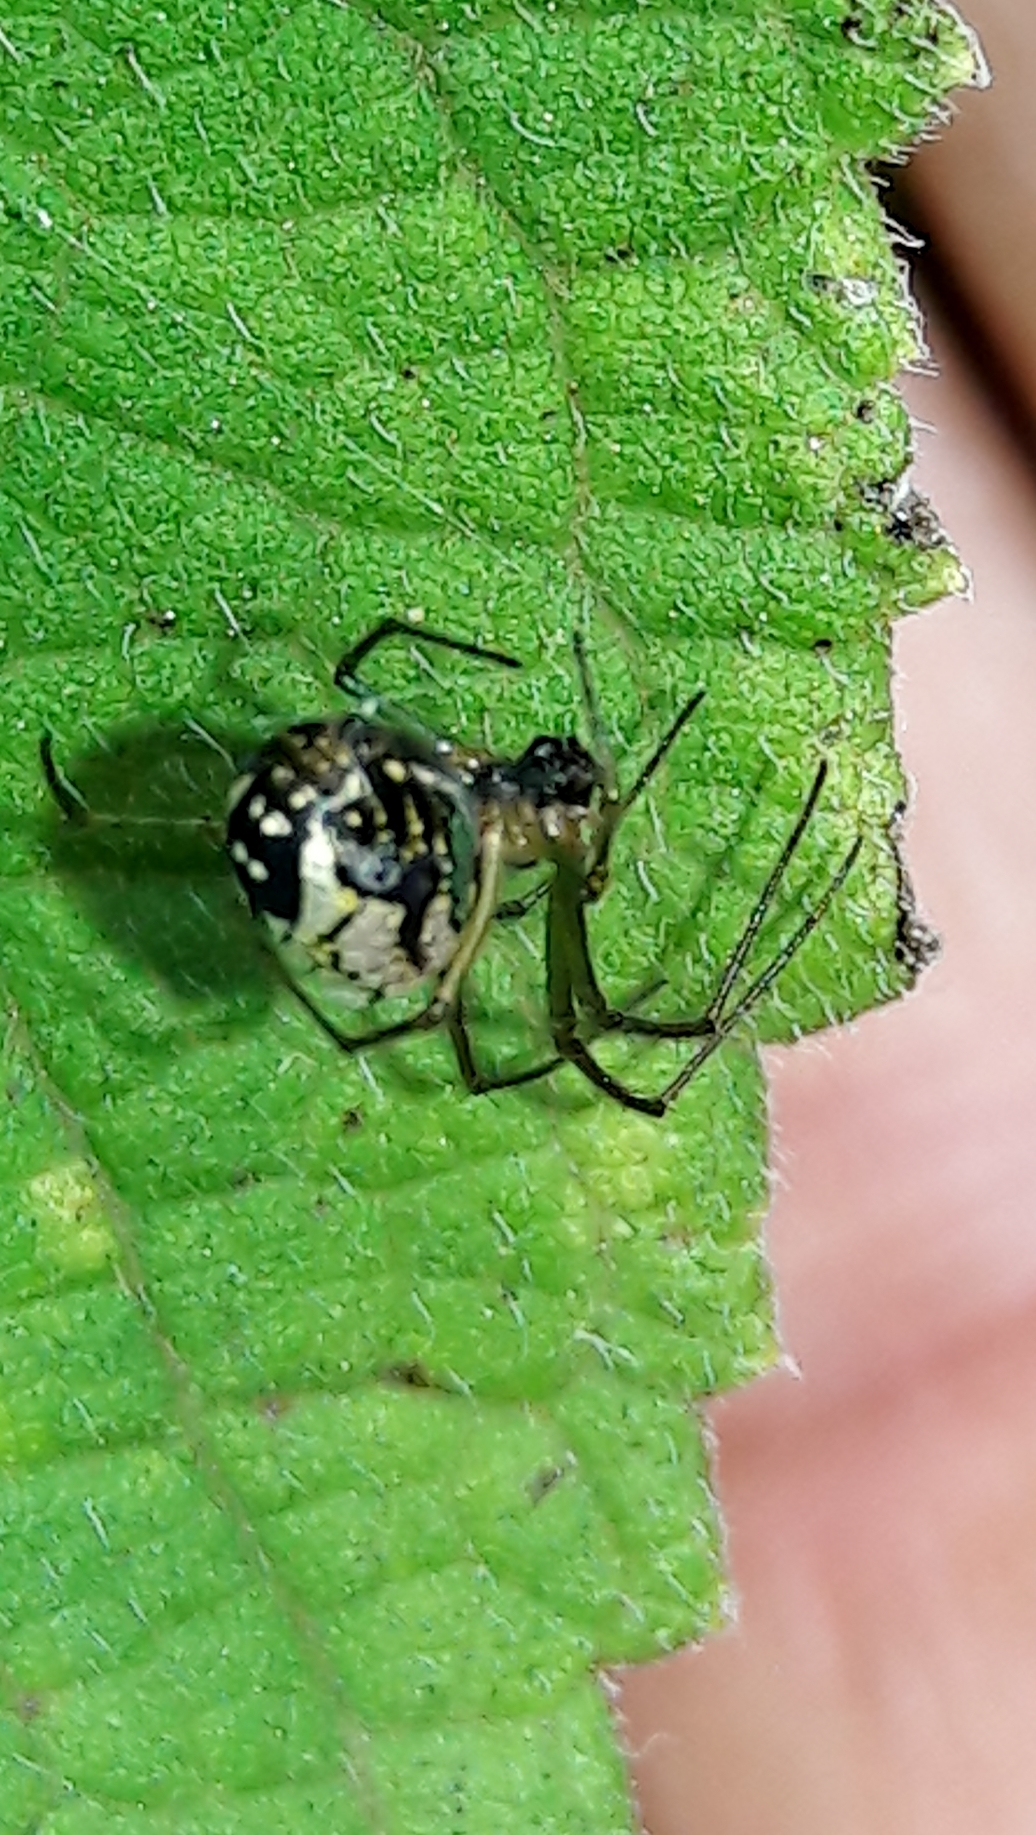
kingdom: Animalia
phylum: Arthropoda
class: Arachnida
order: Araneae
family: Tetragnathidae
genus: Leucauge
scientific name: Leucauge volupis
